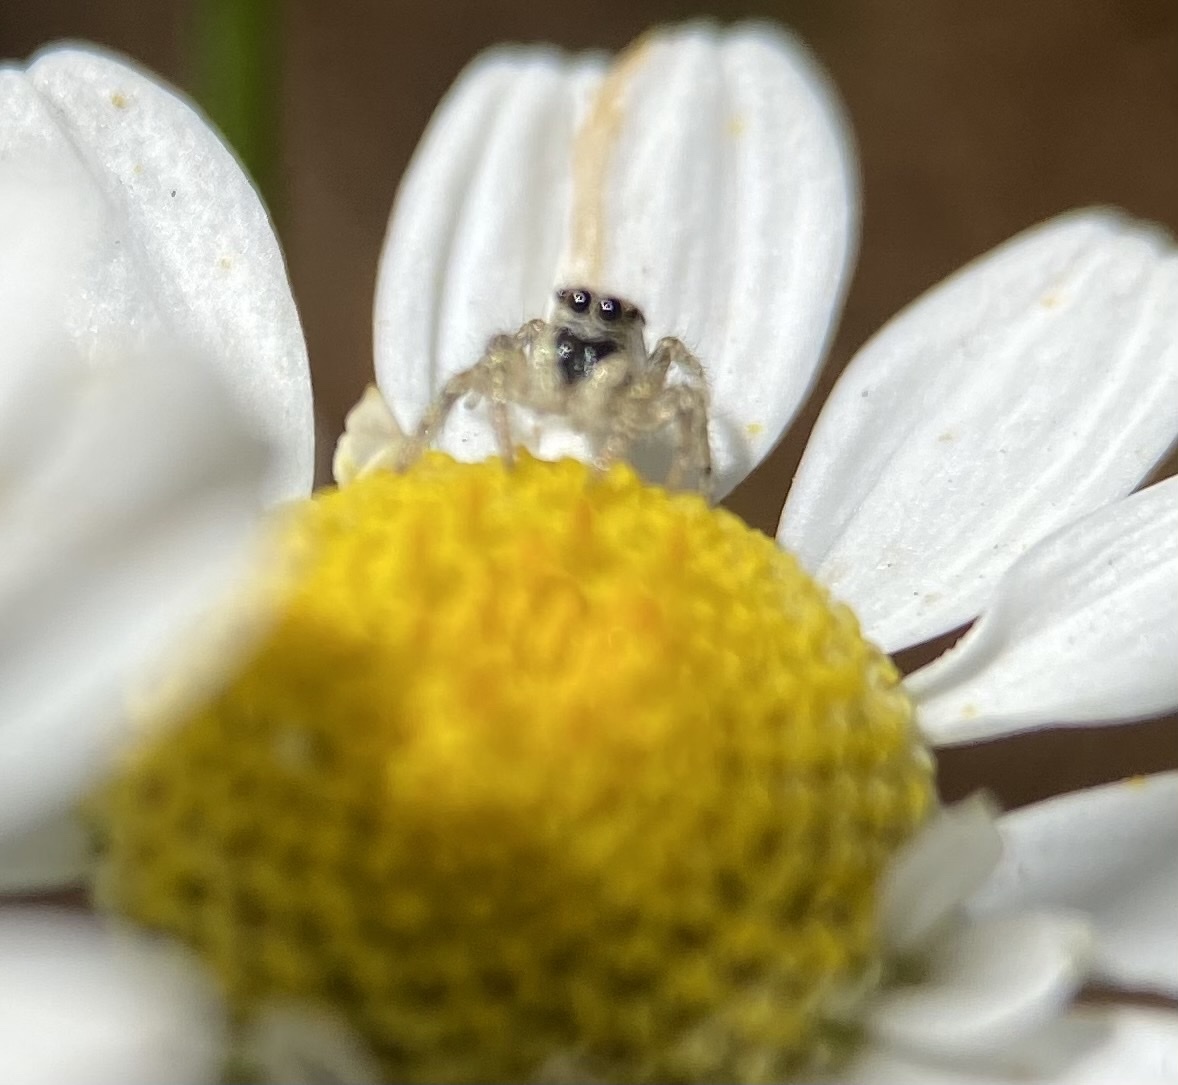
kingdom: Animalia
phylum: Arthropoda
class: Arachnida
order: Araneae
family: Salticidae
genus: Salticus
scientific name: Salticus scenicus
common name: Zebra jumper
